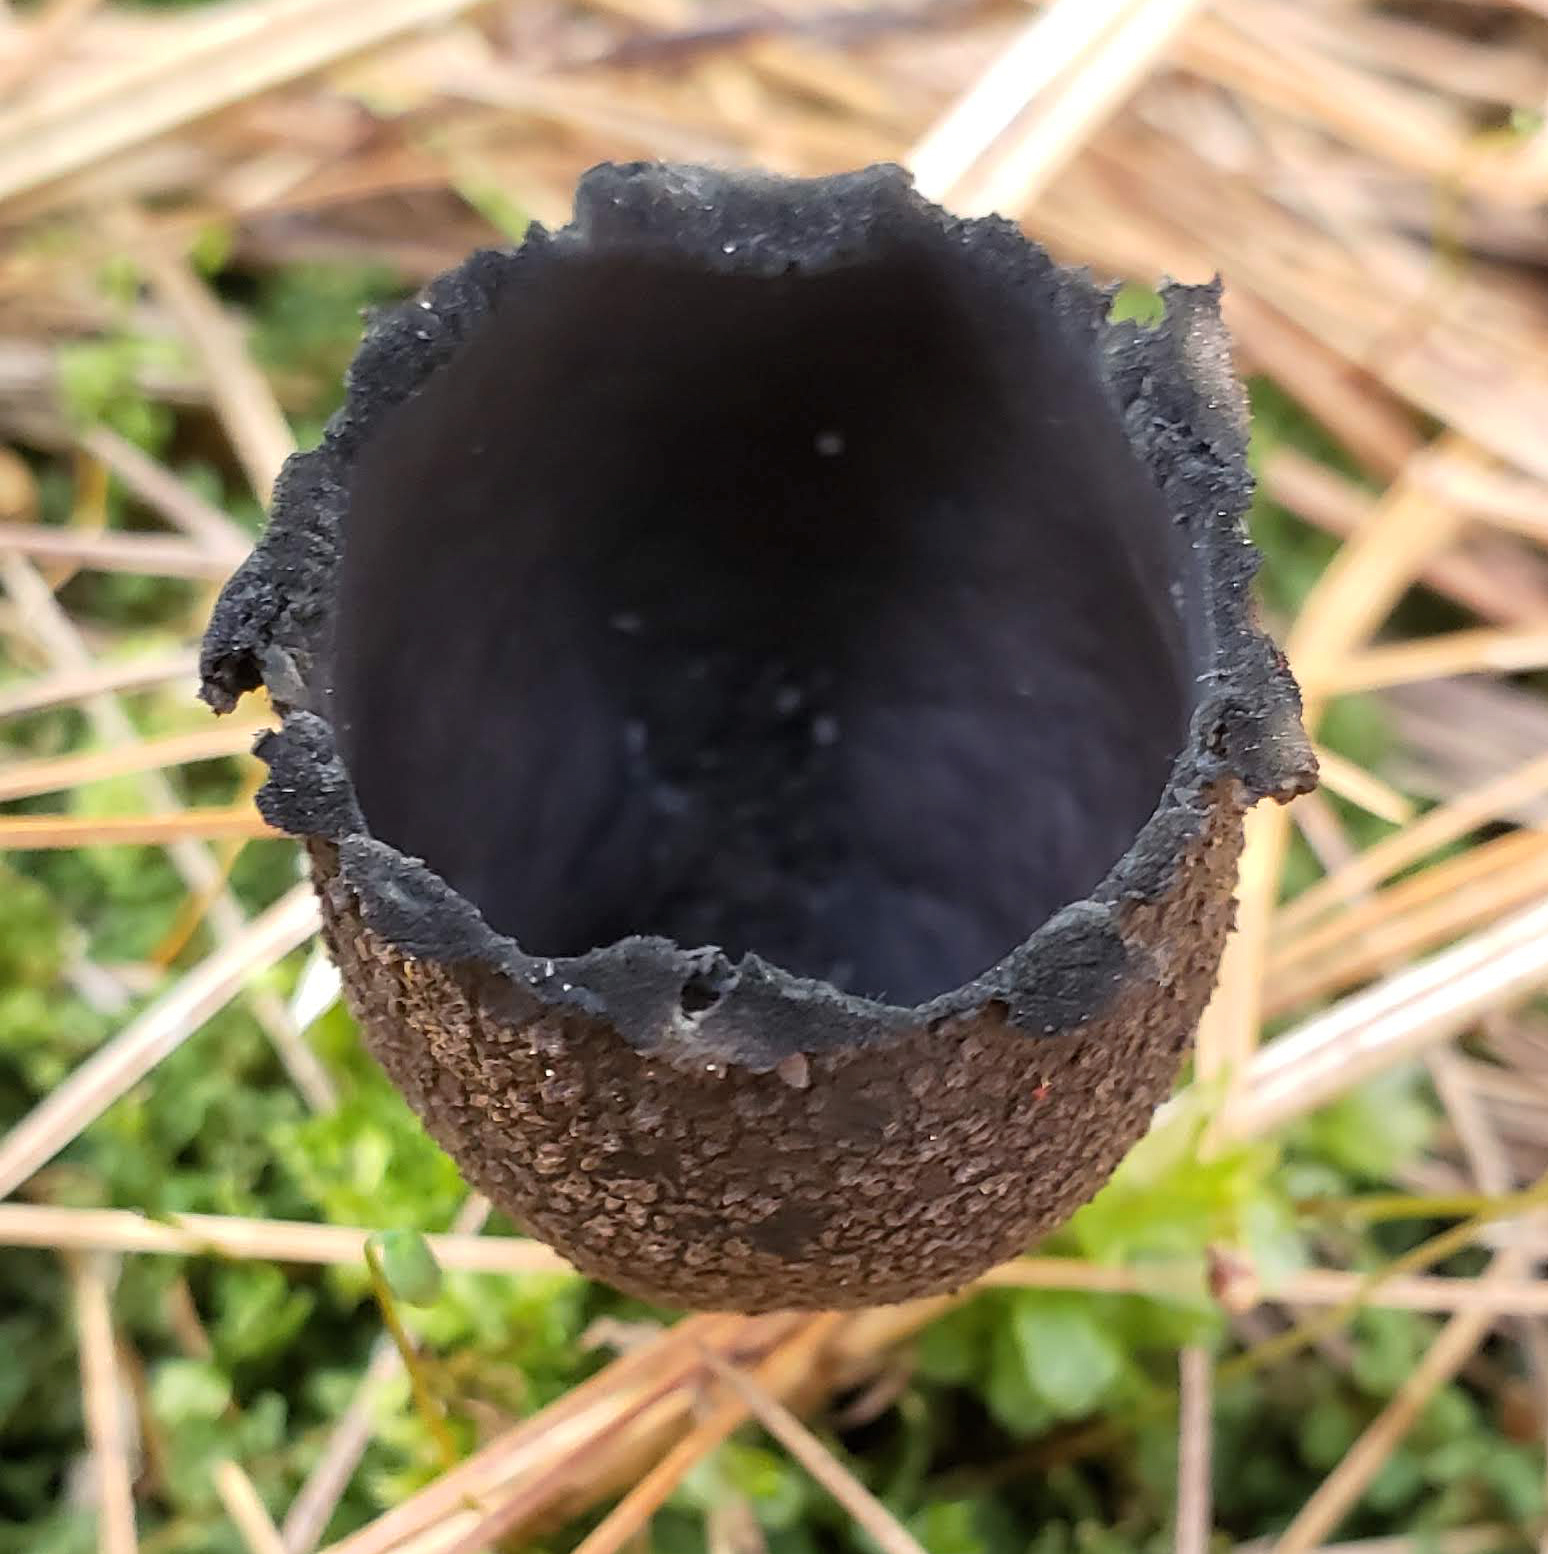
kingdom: Fungi
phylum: Ascomycota
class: Pezizomycetes
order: Pezizales
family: Sarcosomataceae
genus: Urnula
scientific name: Urnula craterium
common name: Devil's urn
